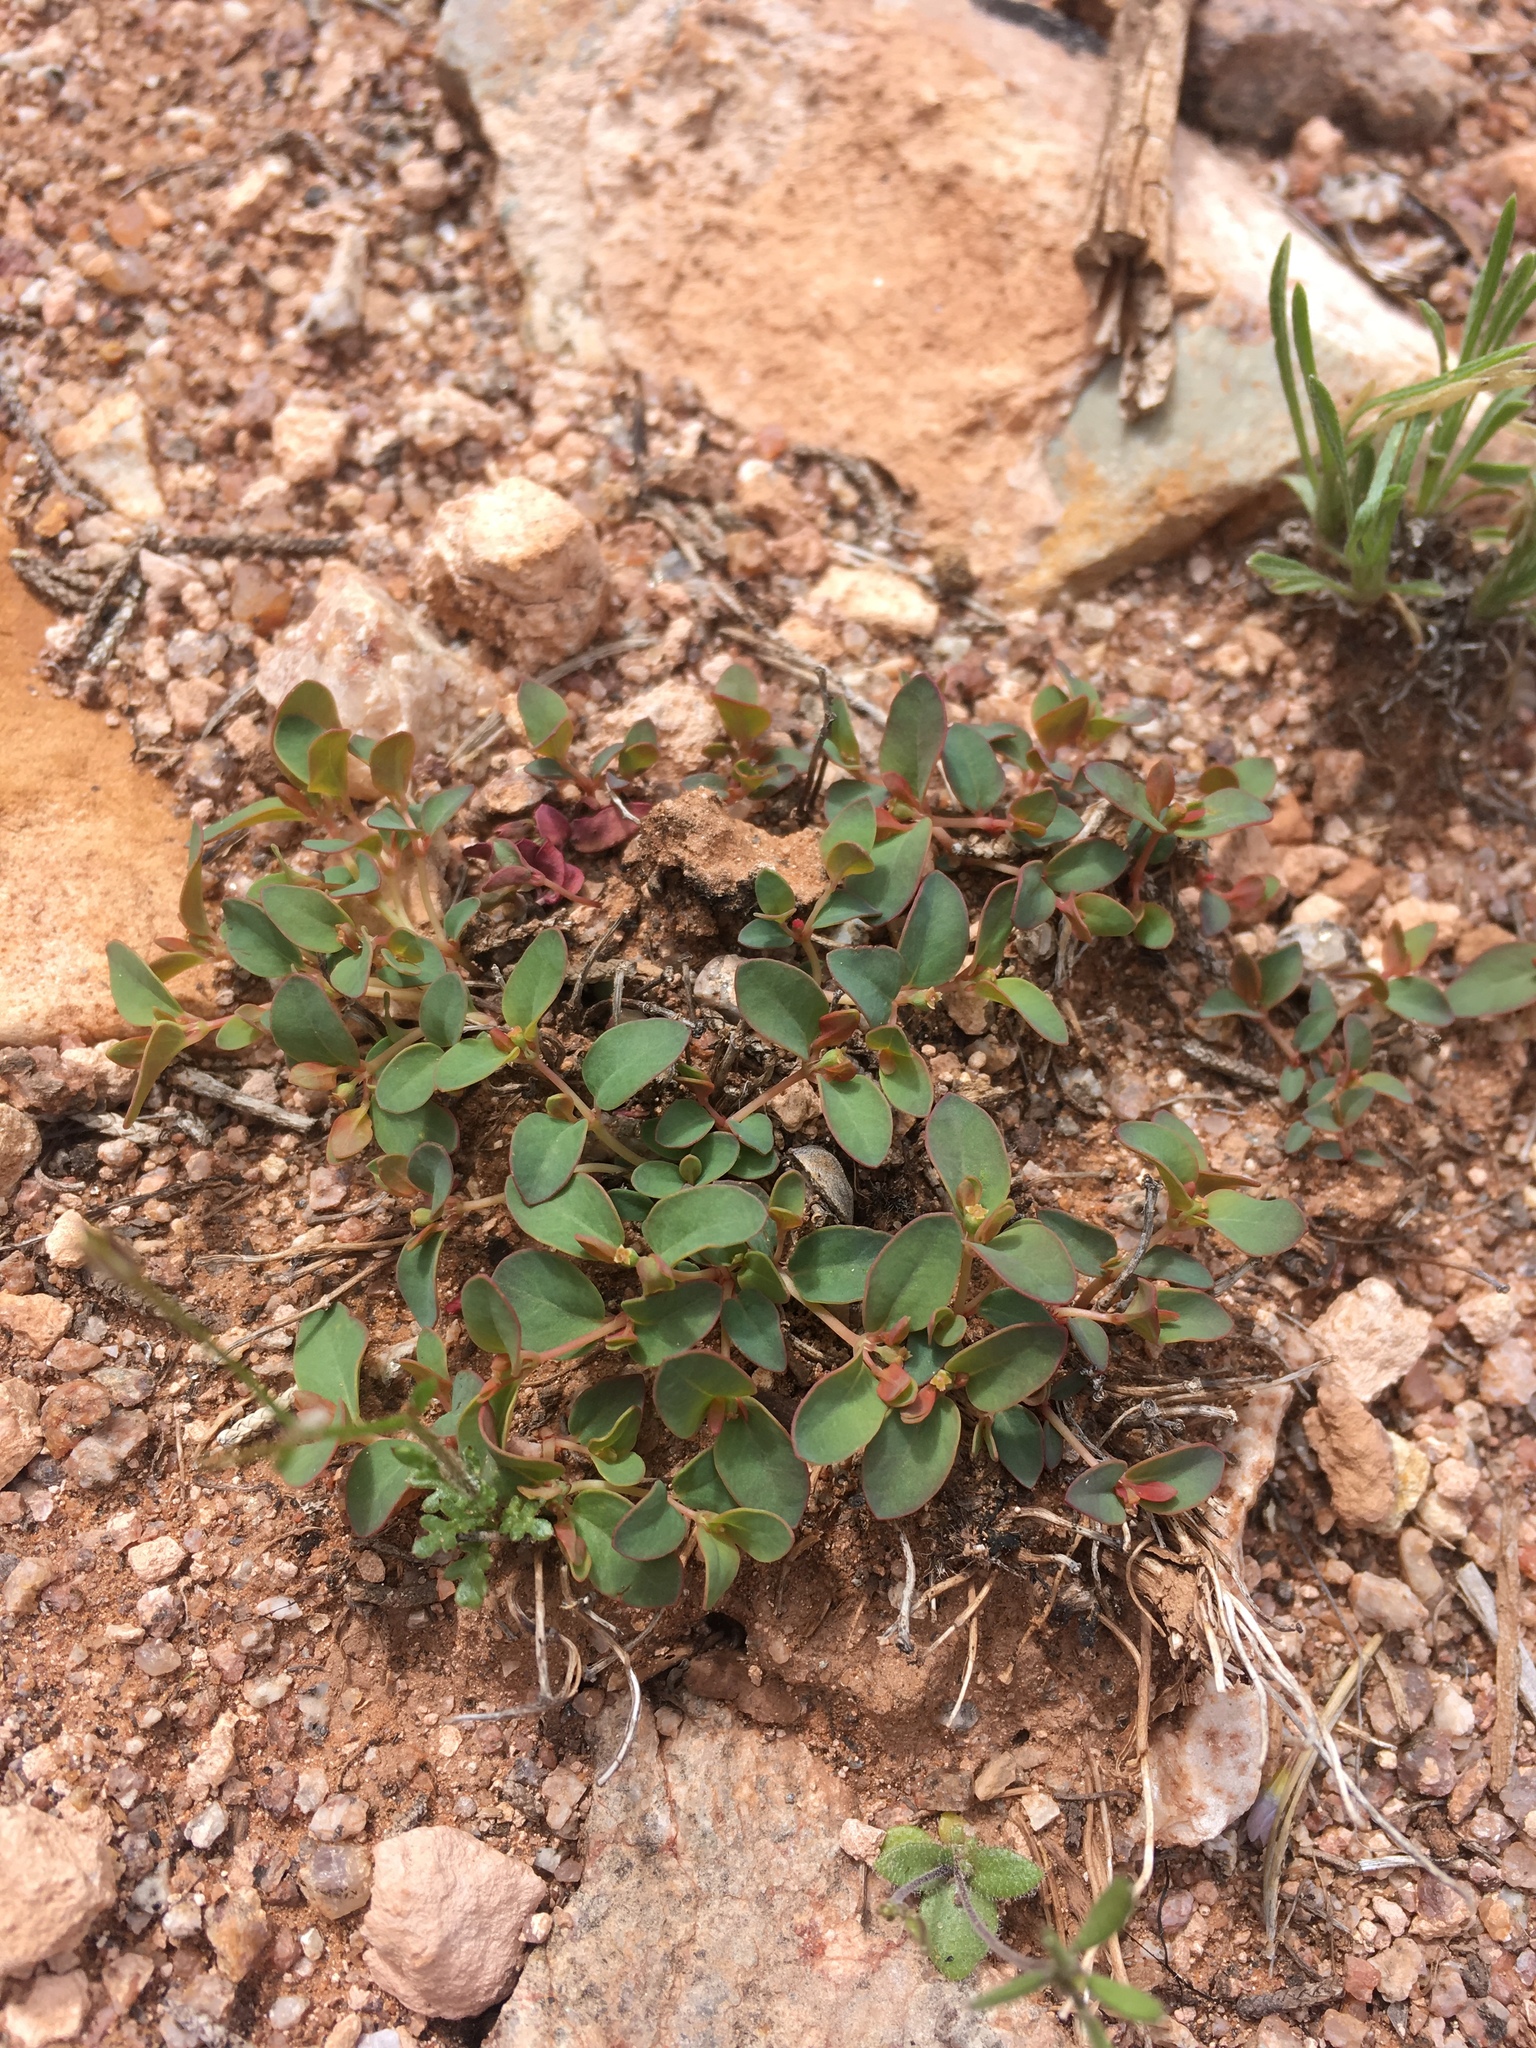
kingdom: Plantae
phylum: Tracheophyta
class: Magnoliopsida
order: Malpighiales
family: Euphorbiaceae
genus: Euphorbia
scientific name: Euphorbia fendleri
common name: Fendler's euphorbia
